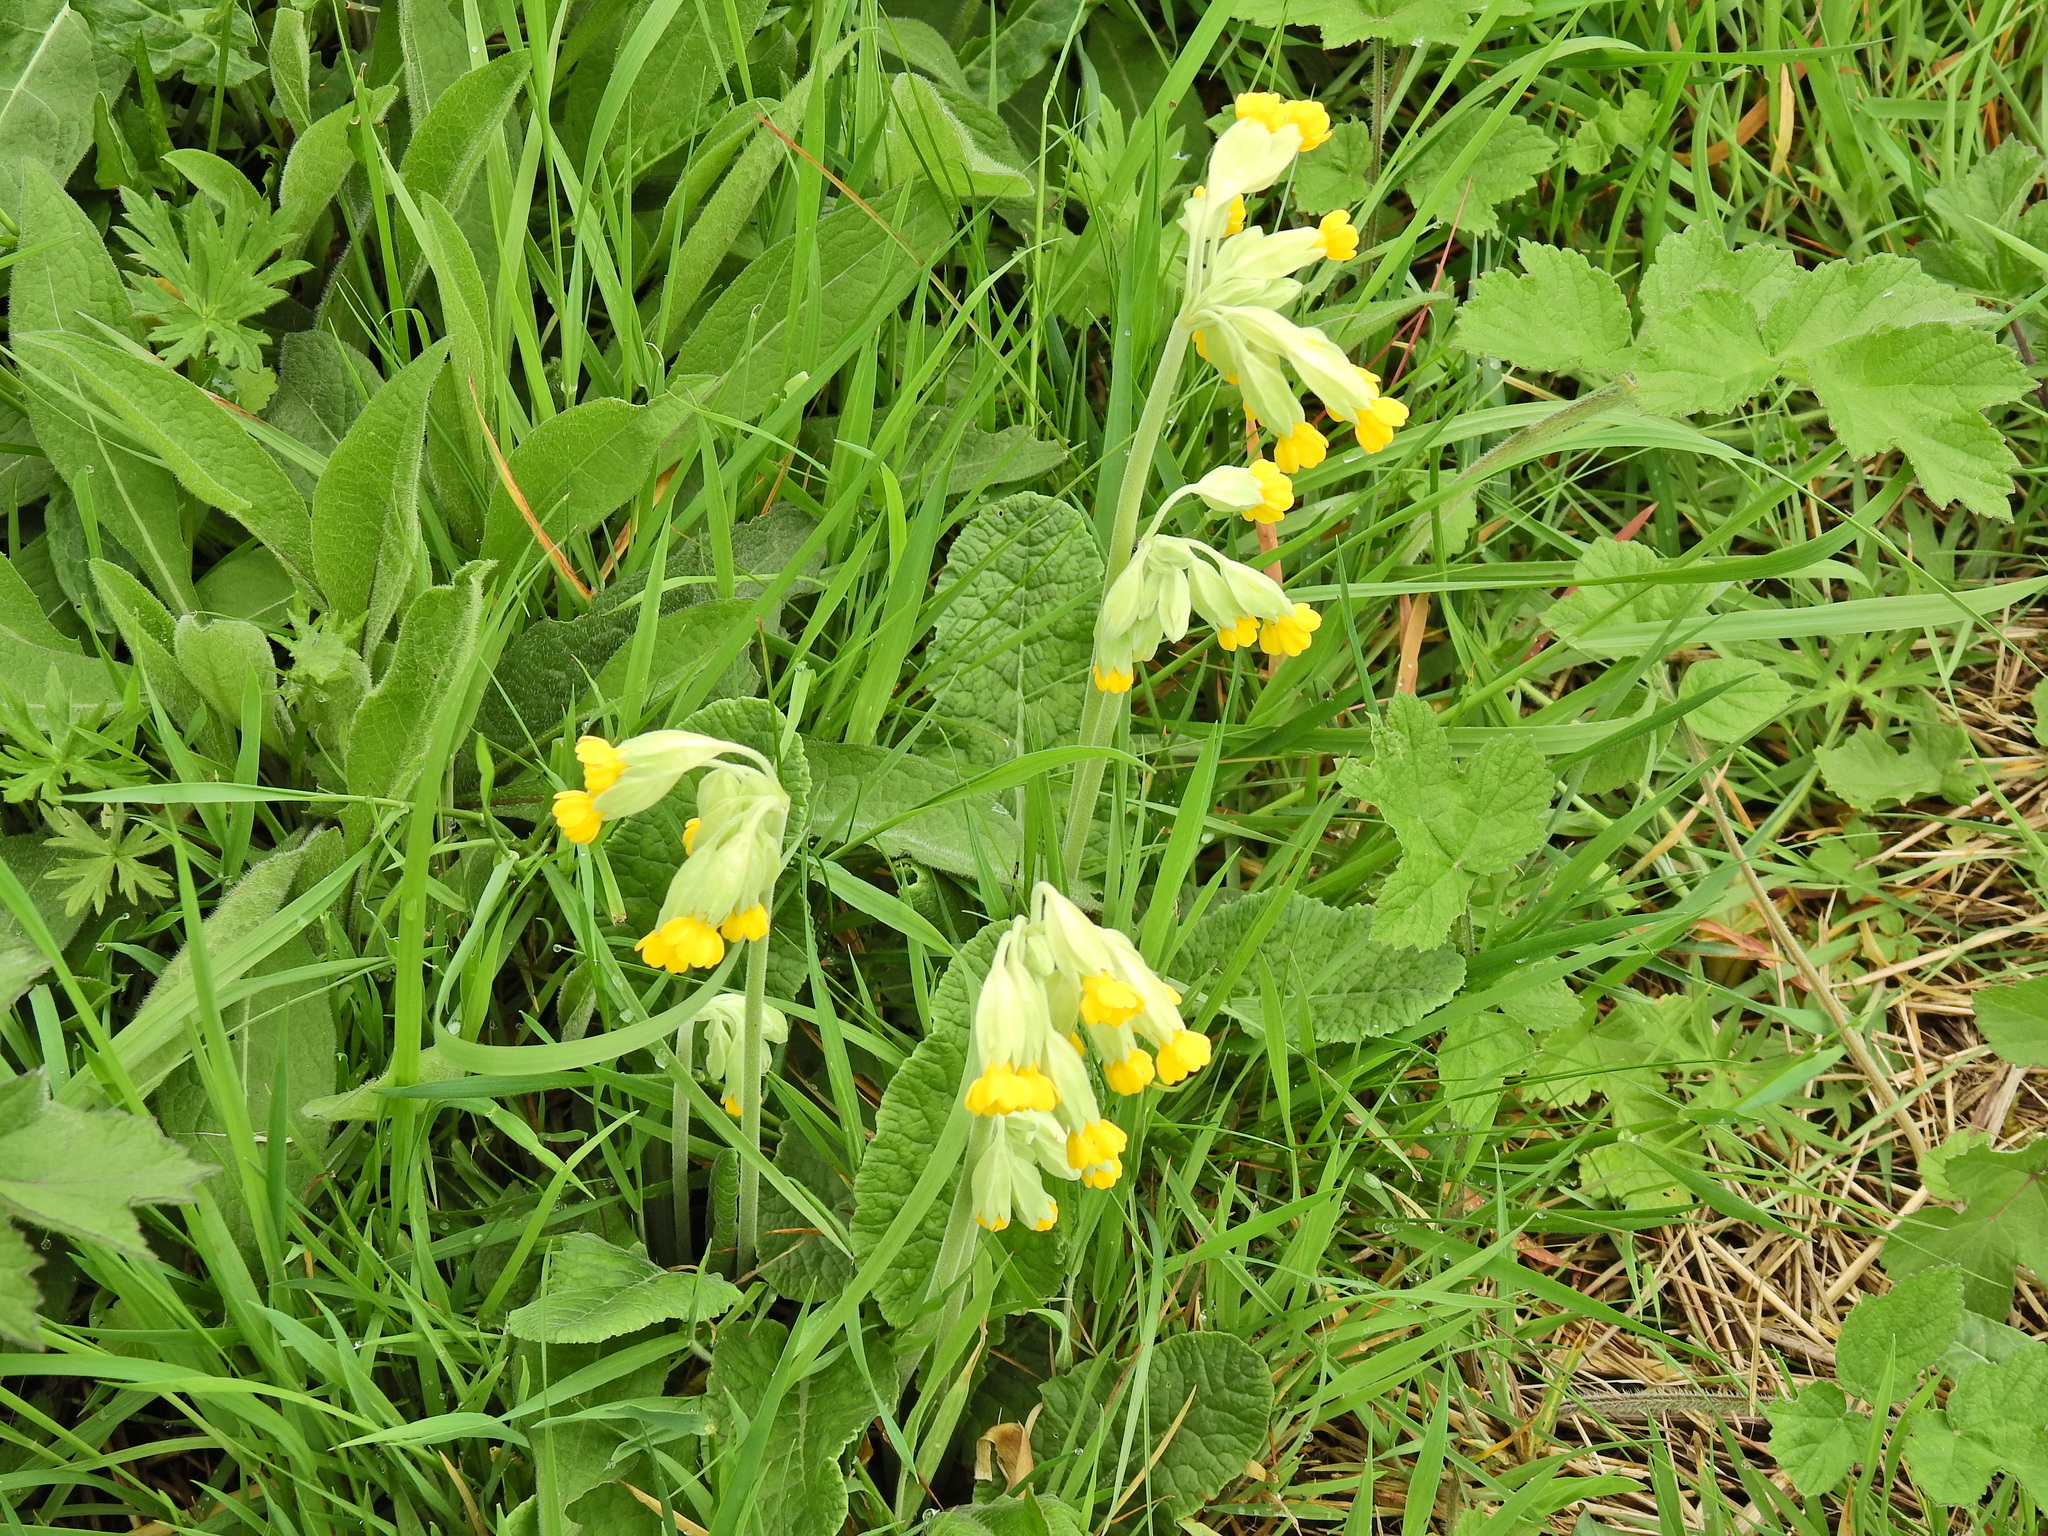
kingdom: Plantae
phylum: Tracheophyta
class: Magnoliopsida
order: Ericales
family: Primulaceae
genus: Primula
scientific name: Primula veris
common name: Cowslip
